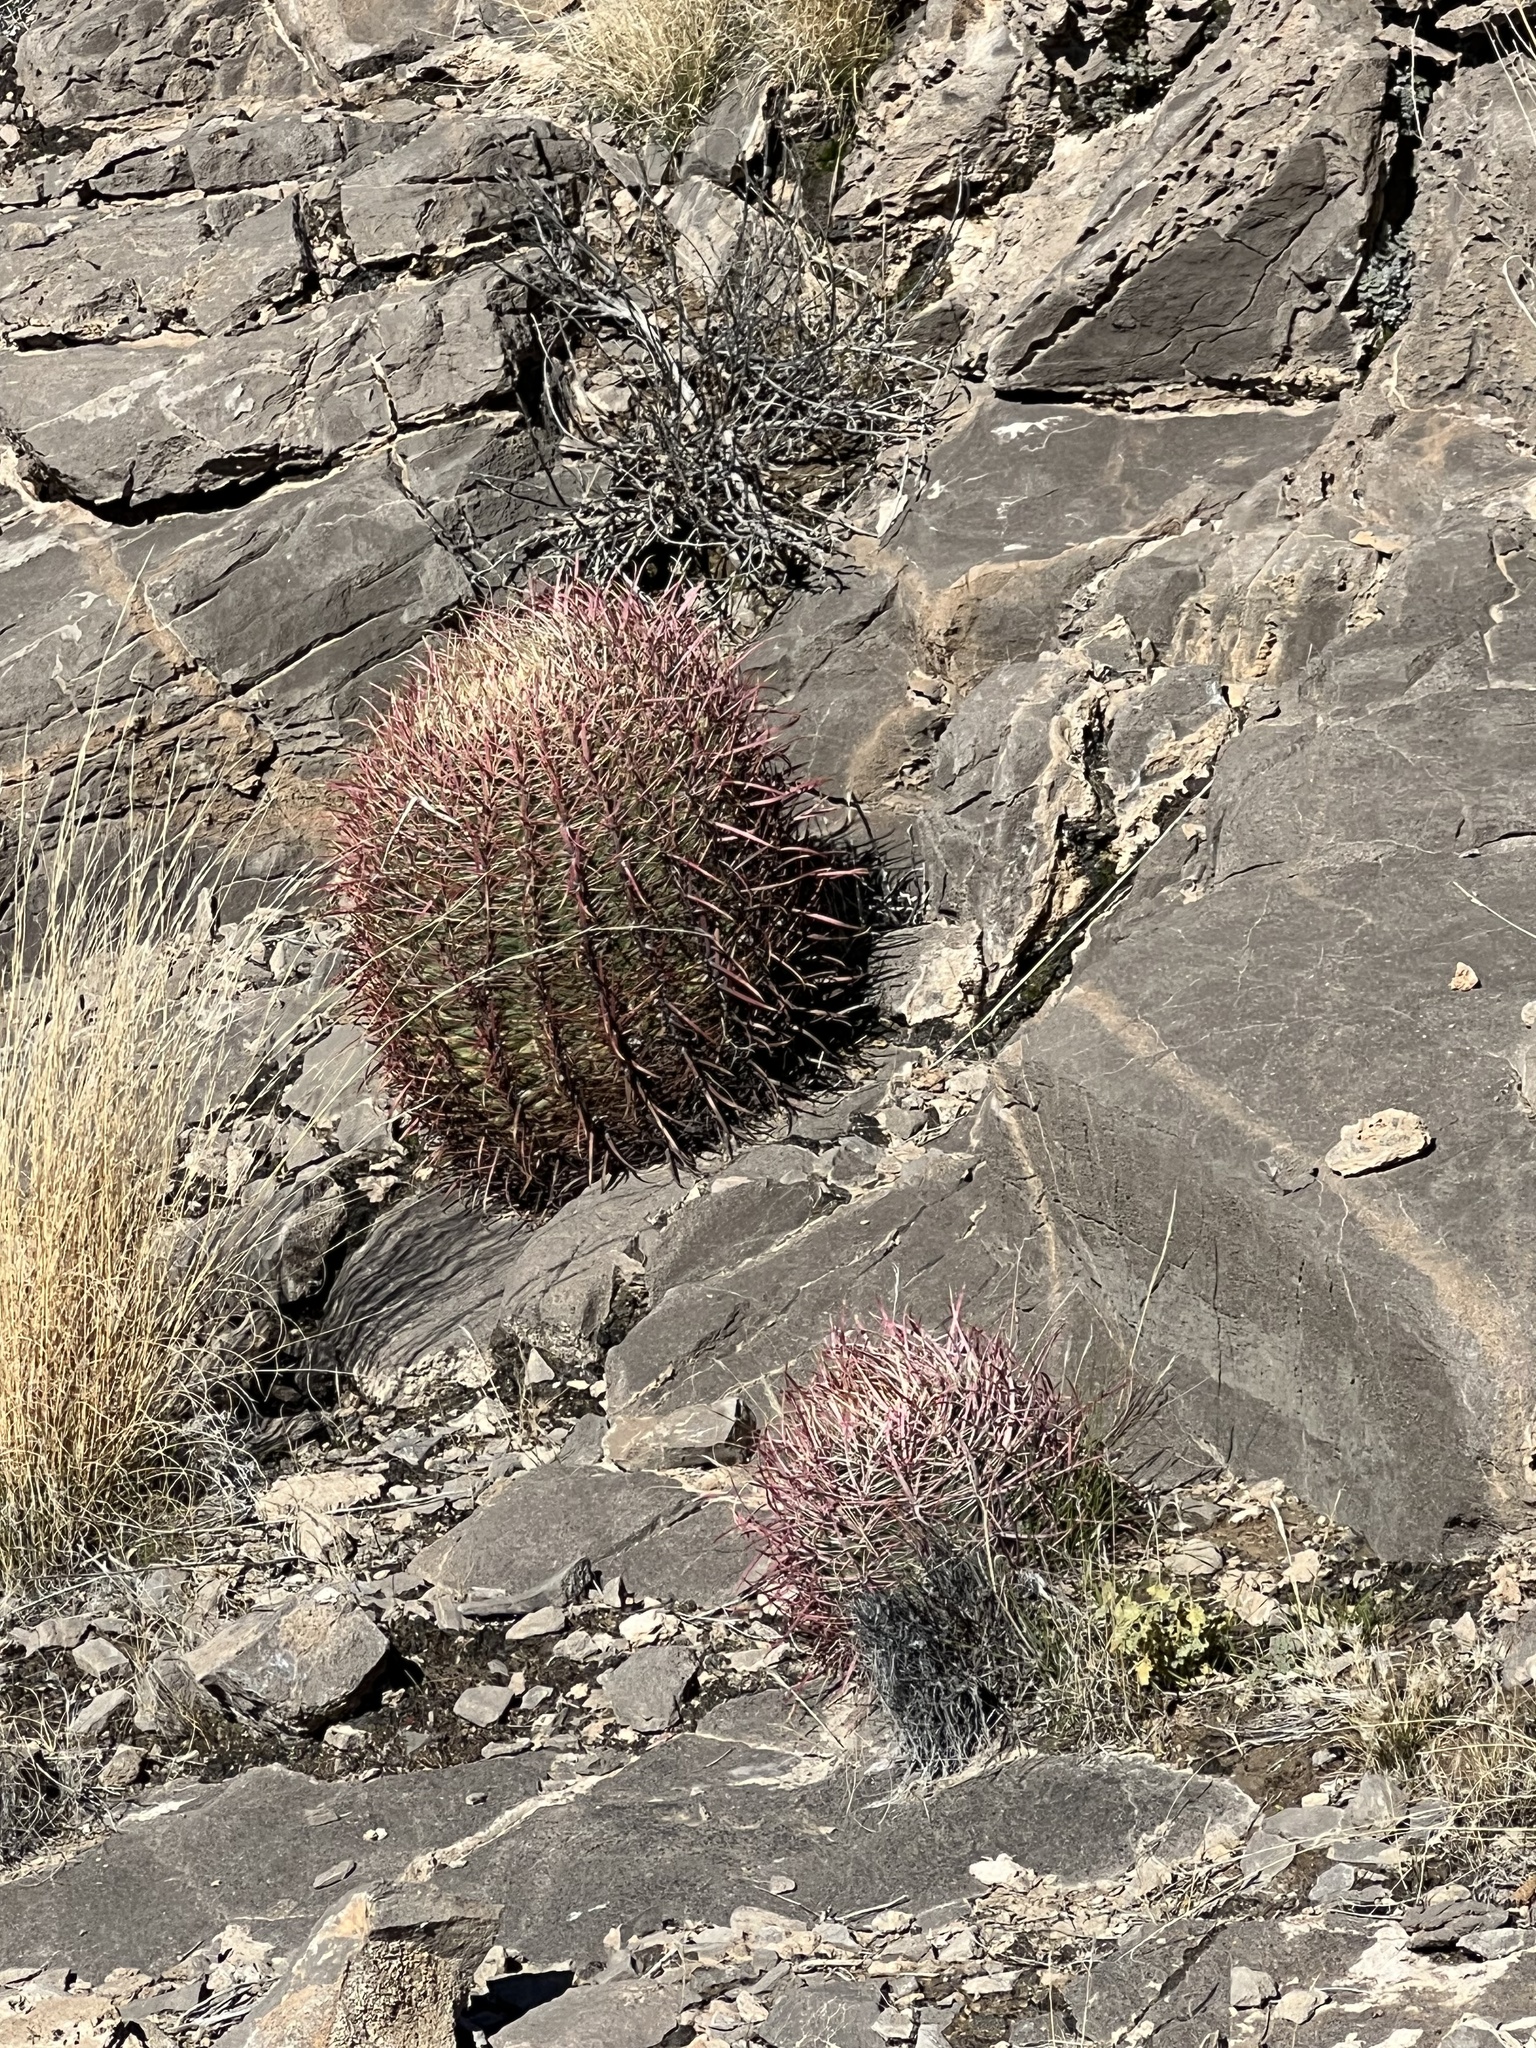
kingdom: Plantae
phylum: Tracheophyta
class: Magnoliopsida
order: Caryophyllales
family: Cactaceae
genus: Ferocactus
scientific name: Ferocactus cylindraceus
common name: California barrel cactus
